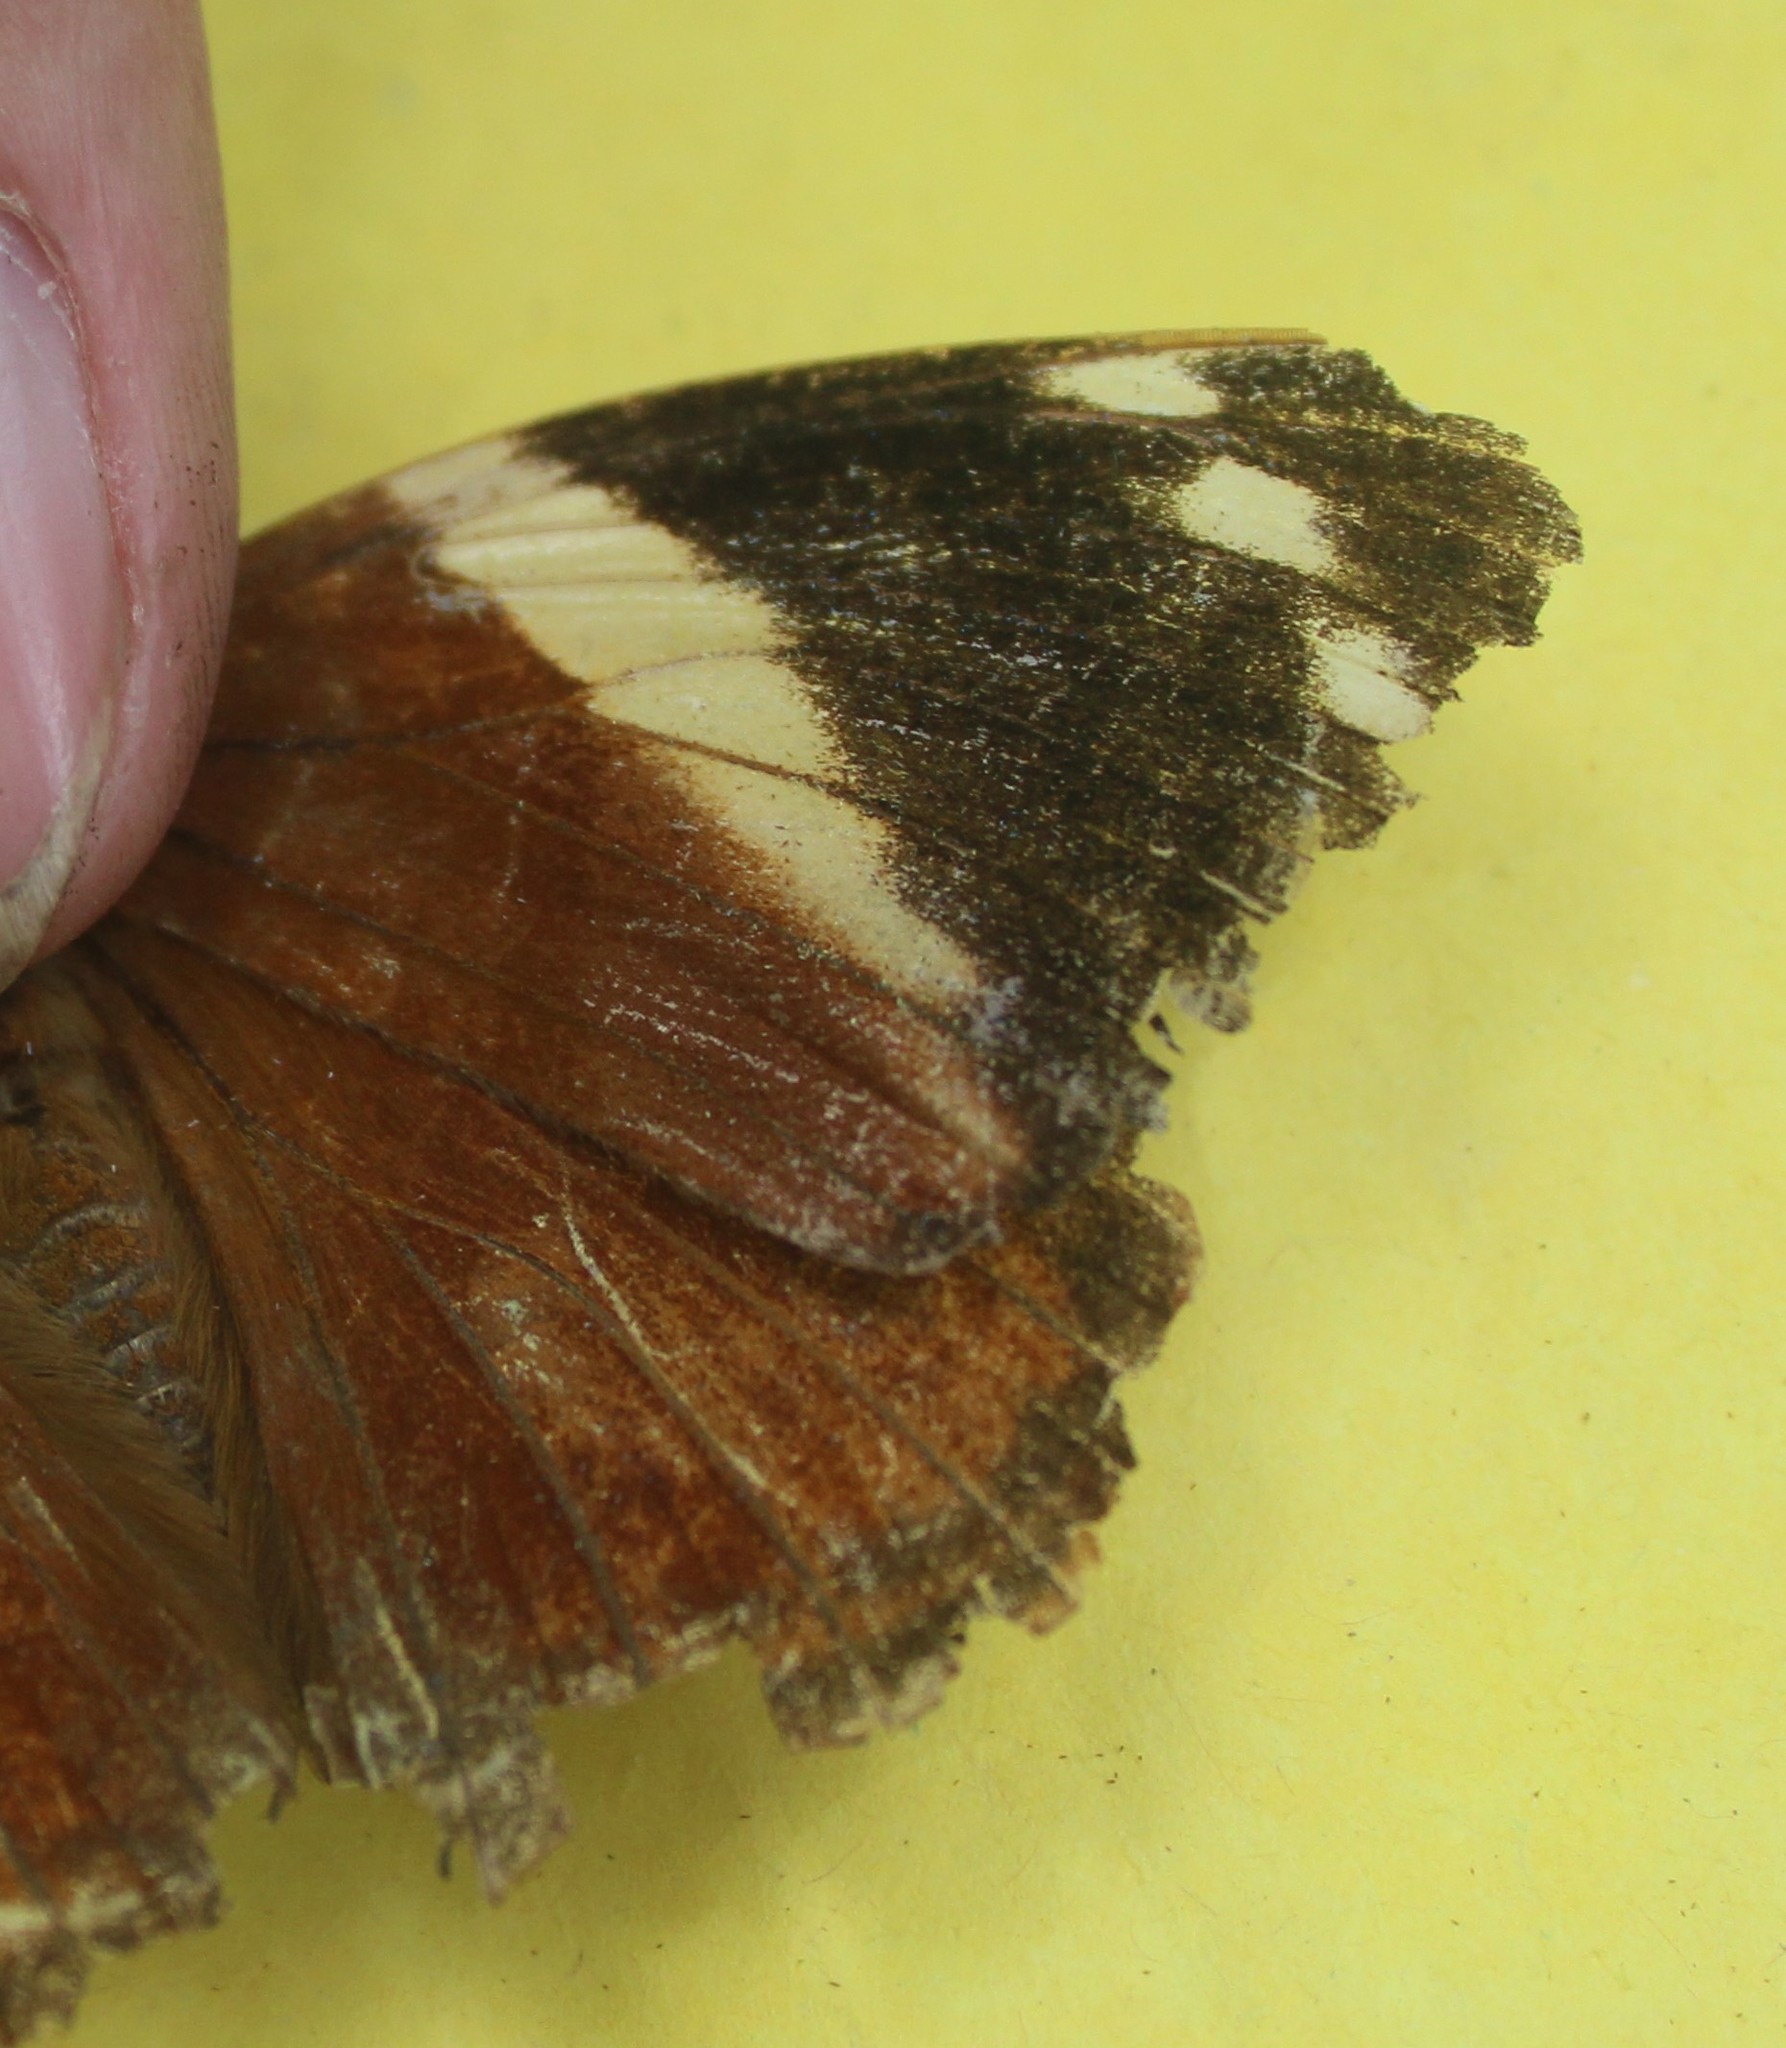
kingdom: Animalia
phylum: Arthropoda
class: Insecta
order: Lepidoptera
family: Nymphalidae
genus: Smyrna
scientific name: Smyrna blomfildia
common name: Blomfild's beauty
